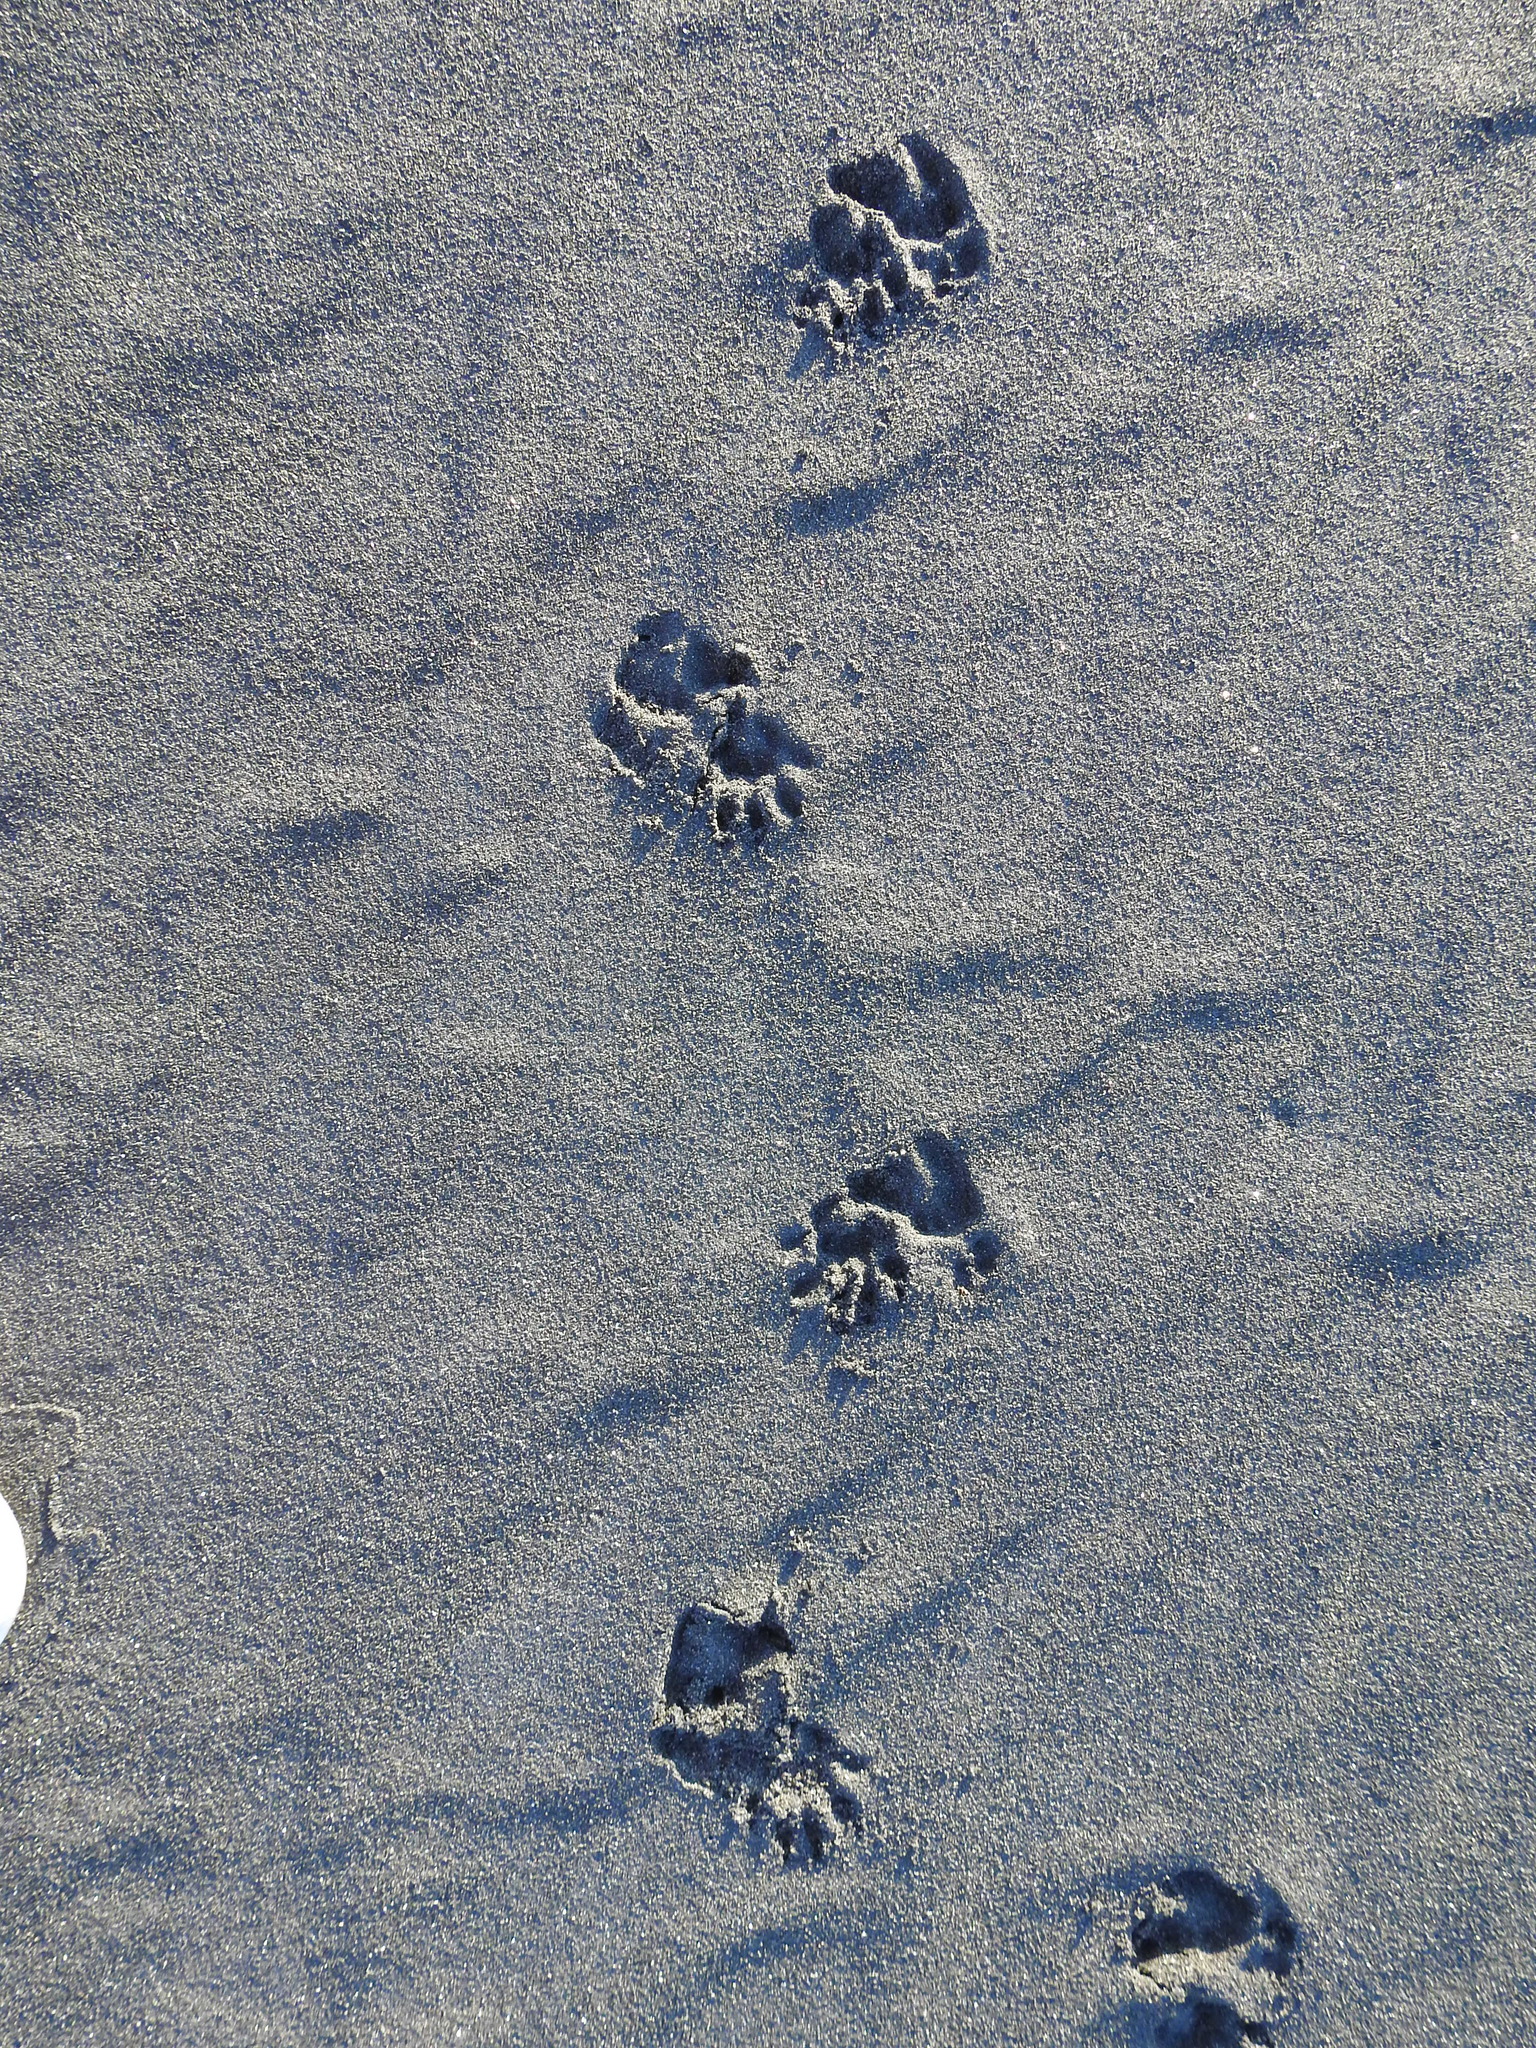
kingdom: Animalia
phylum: Chordata
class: Mammalia
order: Diprotodontia
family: Phalangeridae
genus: Trichosurus
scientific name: Trichosurus vulpecula
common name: Common brushtail
